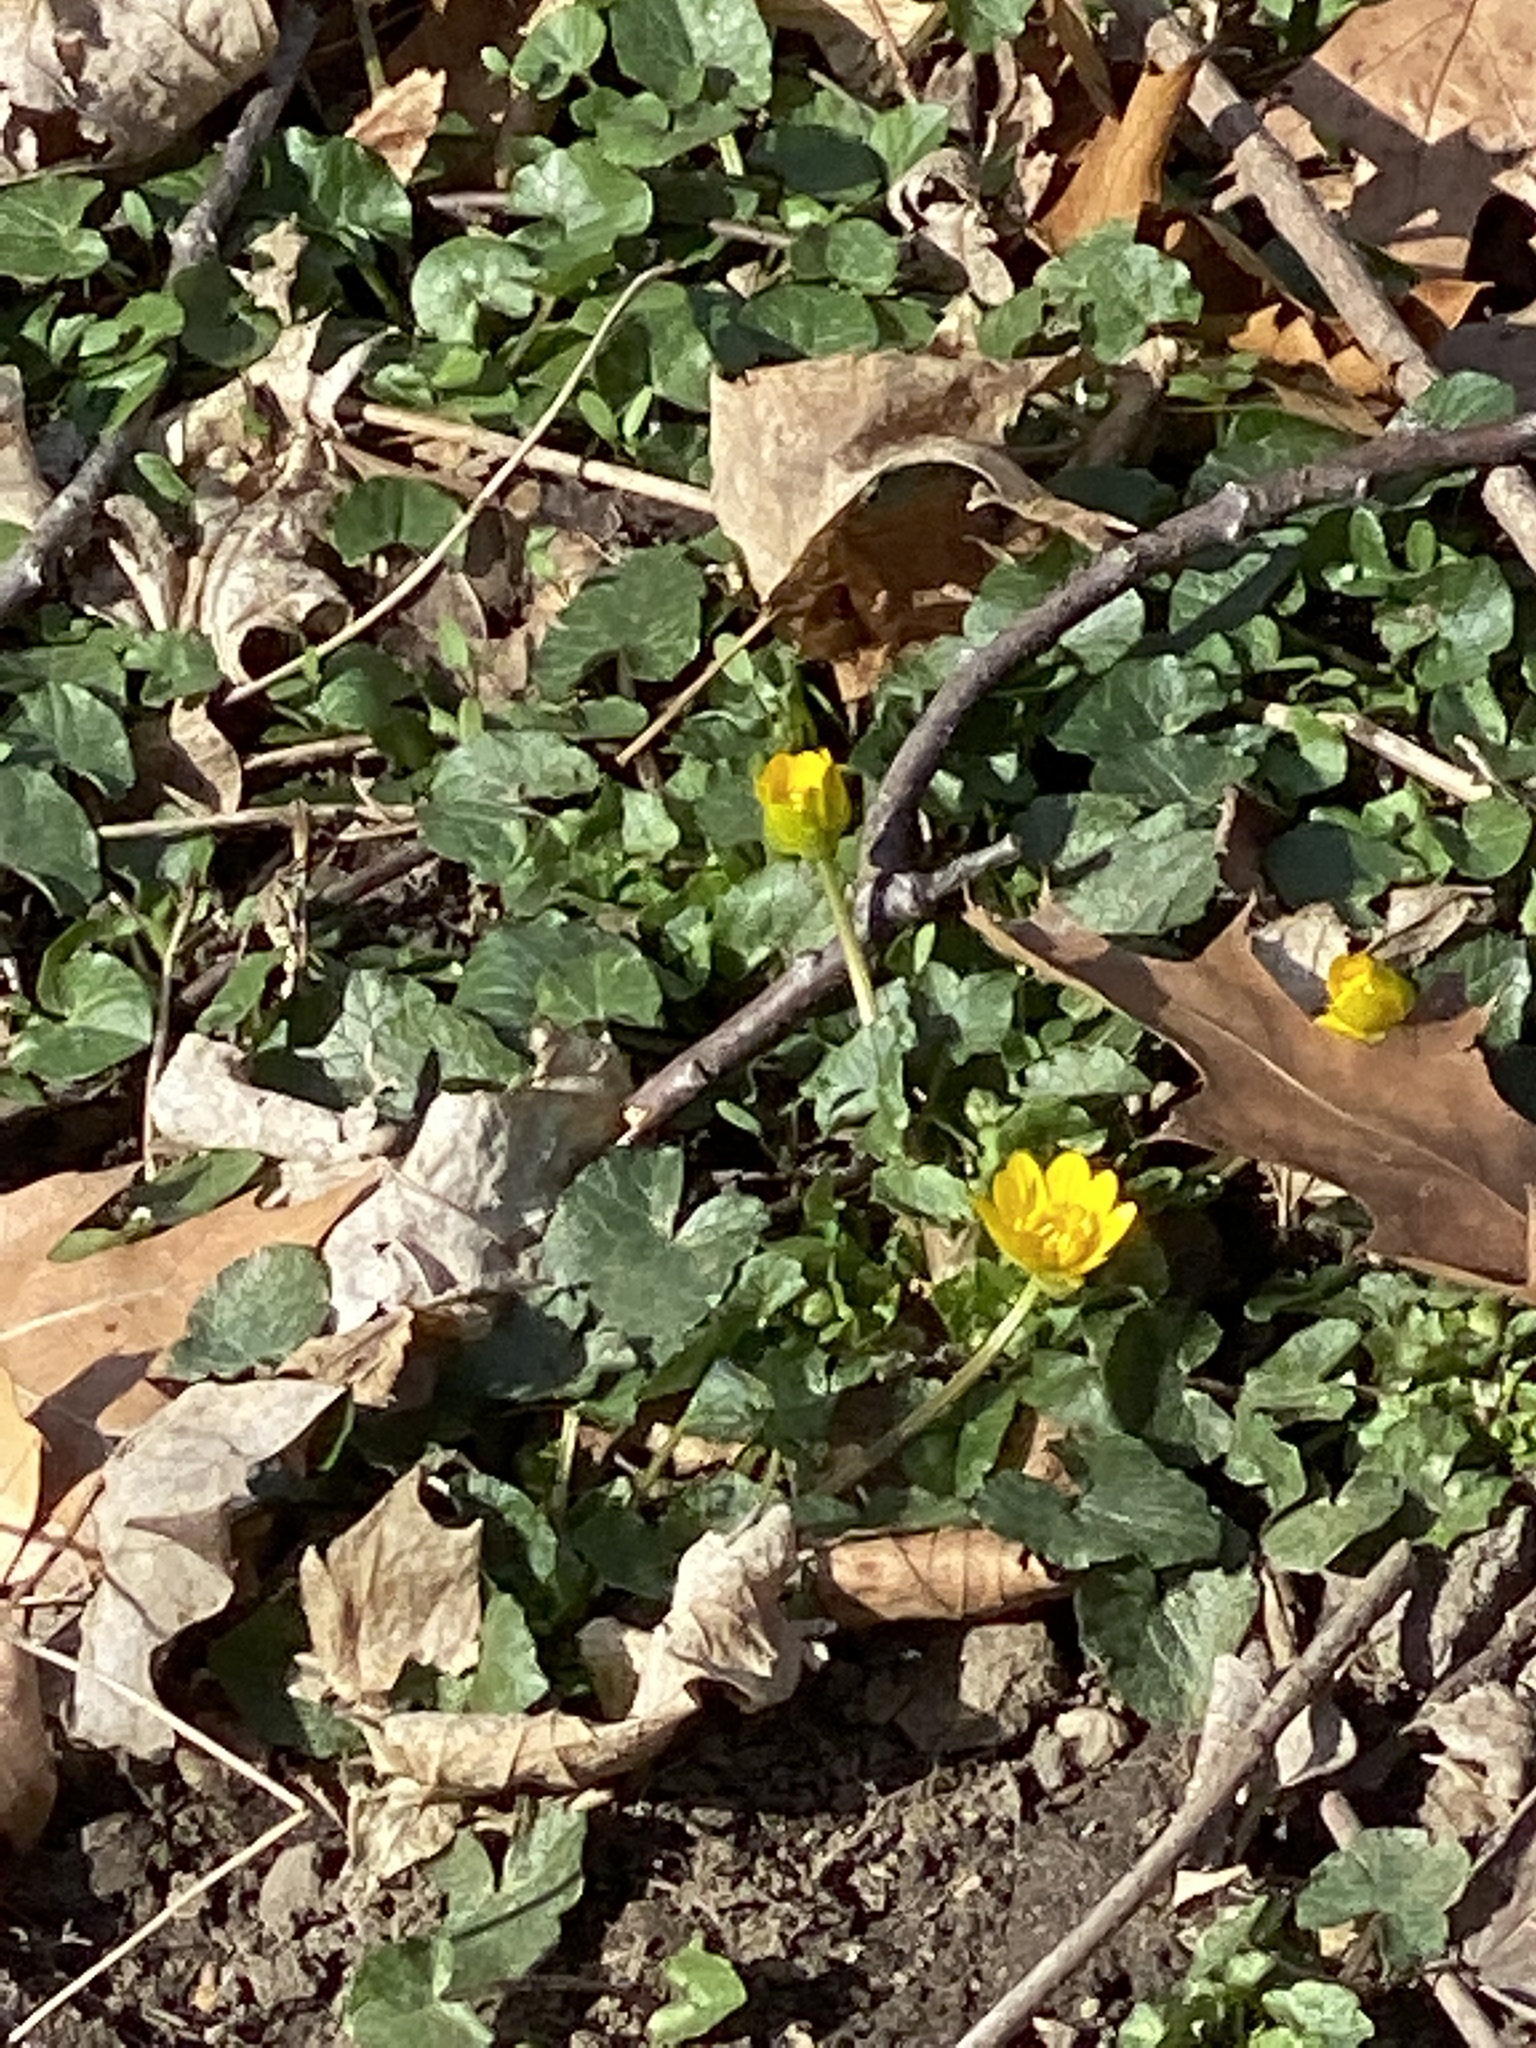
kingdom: Plantae
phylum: Tracheophyta
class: Magnoliopsida
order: Ranunculales
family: Ranunculaceae
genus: Ficaria
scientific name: Ficaria verna
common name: Lesser celandine
